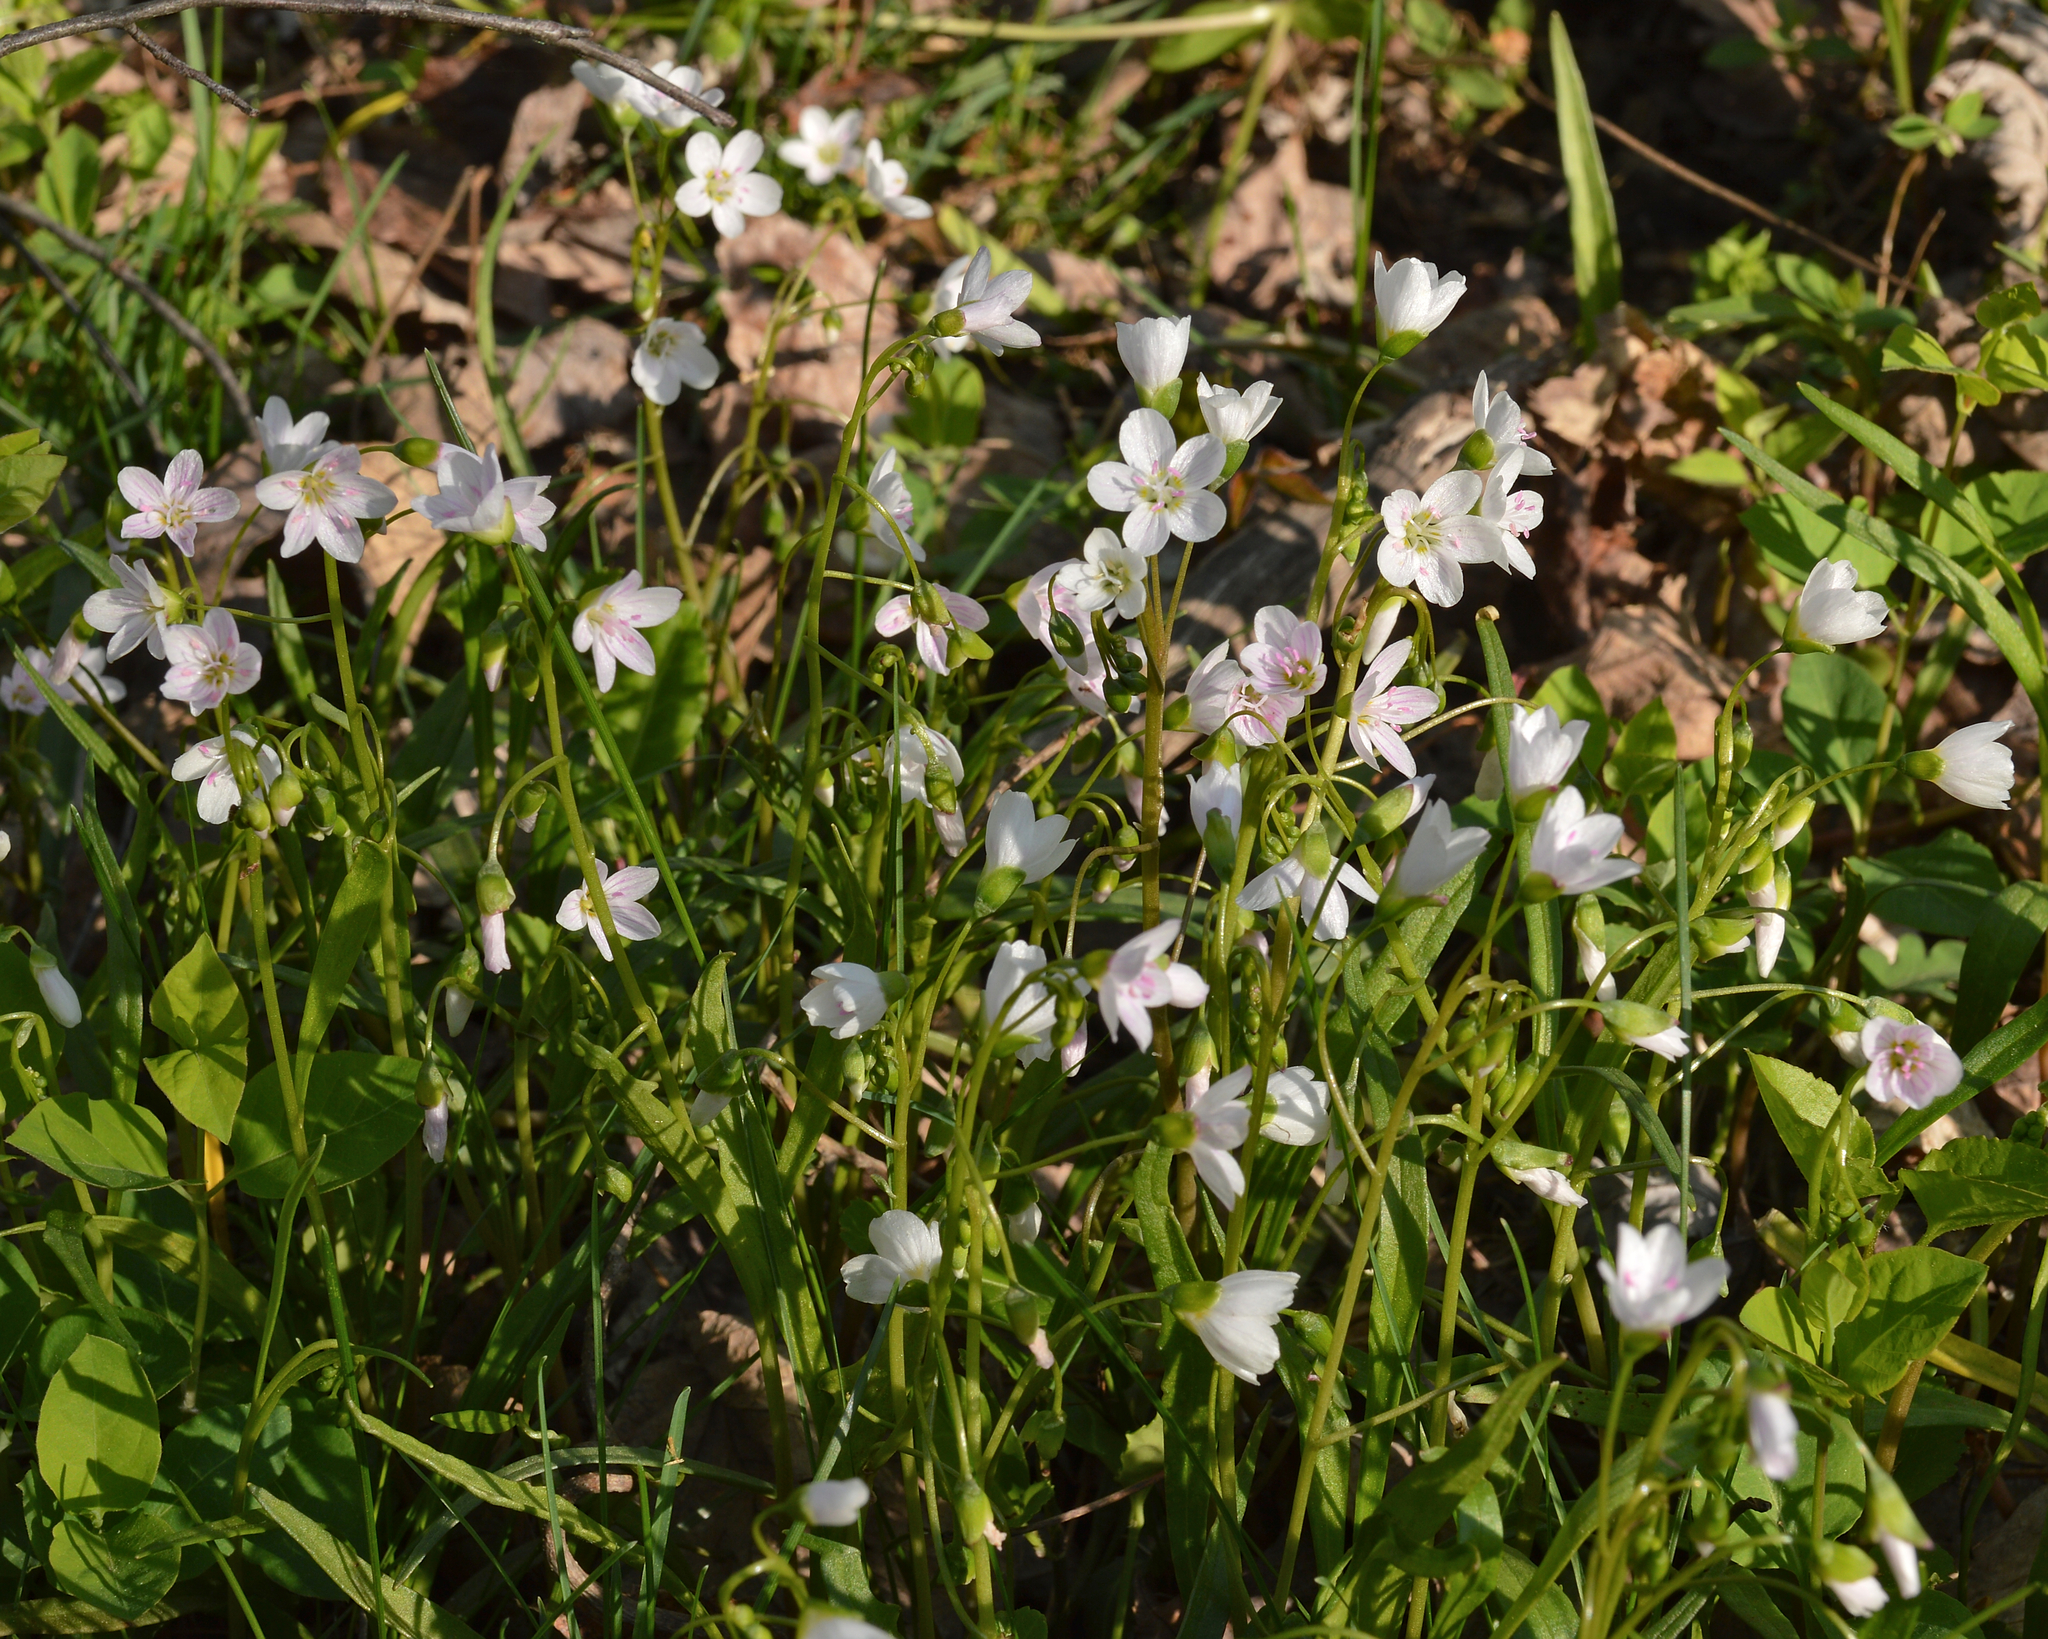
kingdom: Plantae
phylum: Tracheophyta
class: Magnoliopsida
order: Caryophyllales
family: Montiaceae
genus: Claytonia
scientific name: Claytonia virginica
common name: Virginia springbeauty
